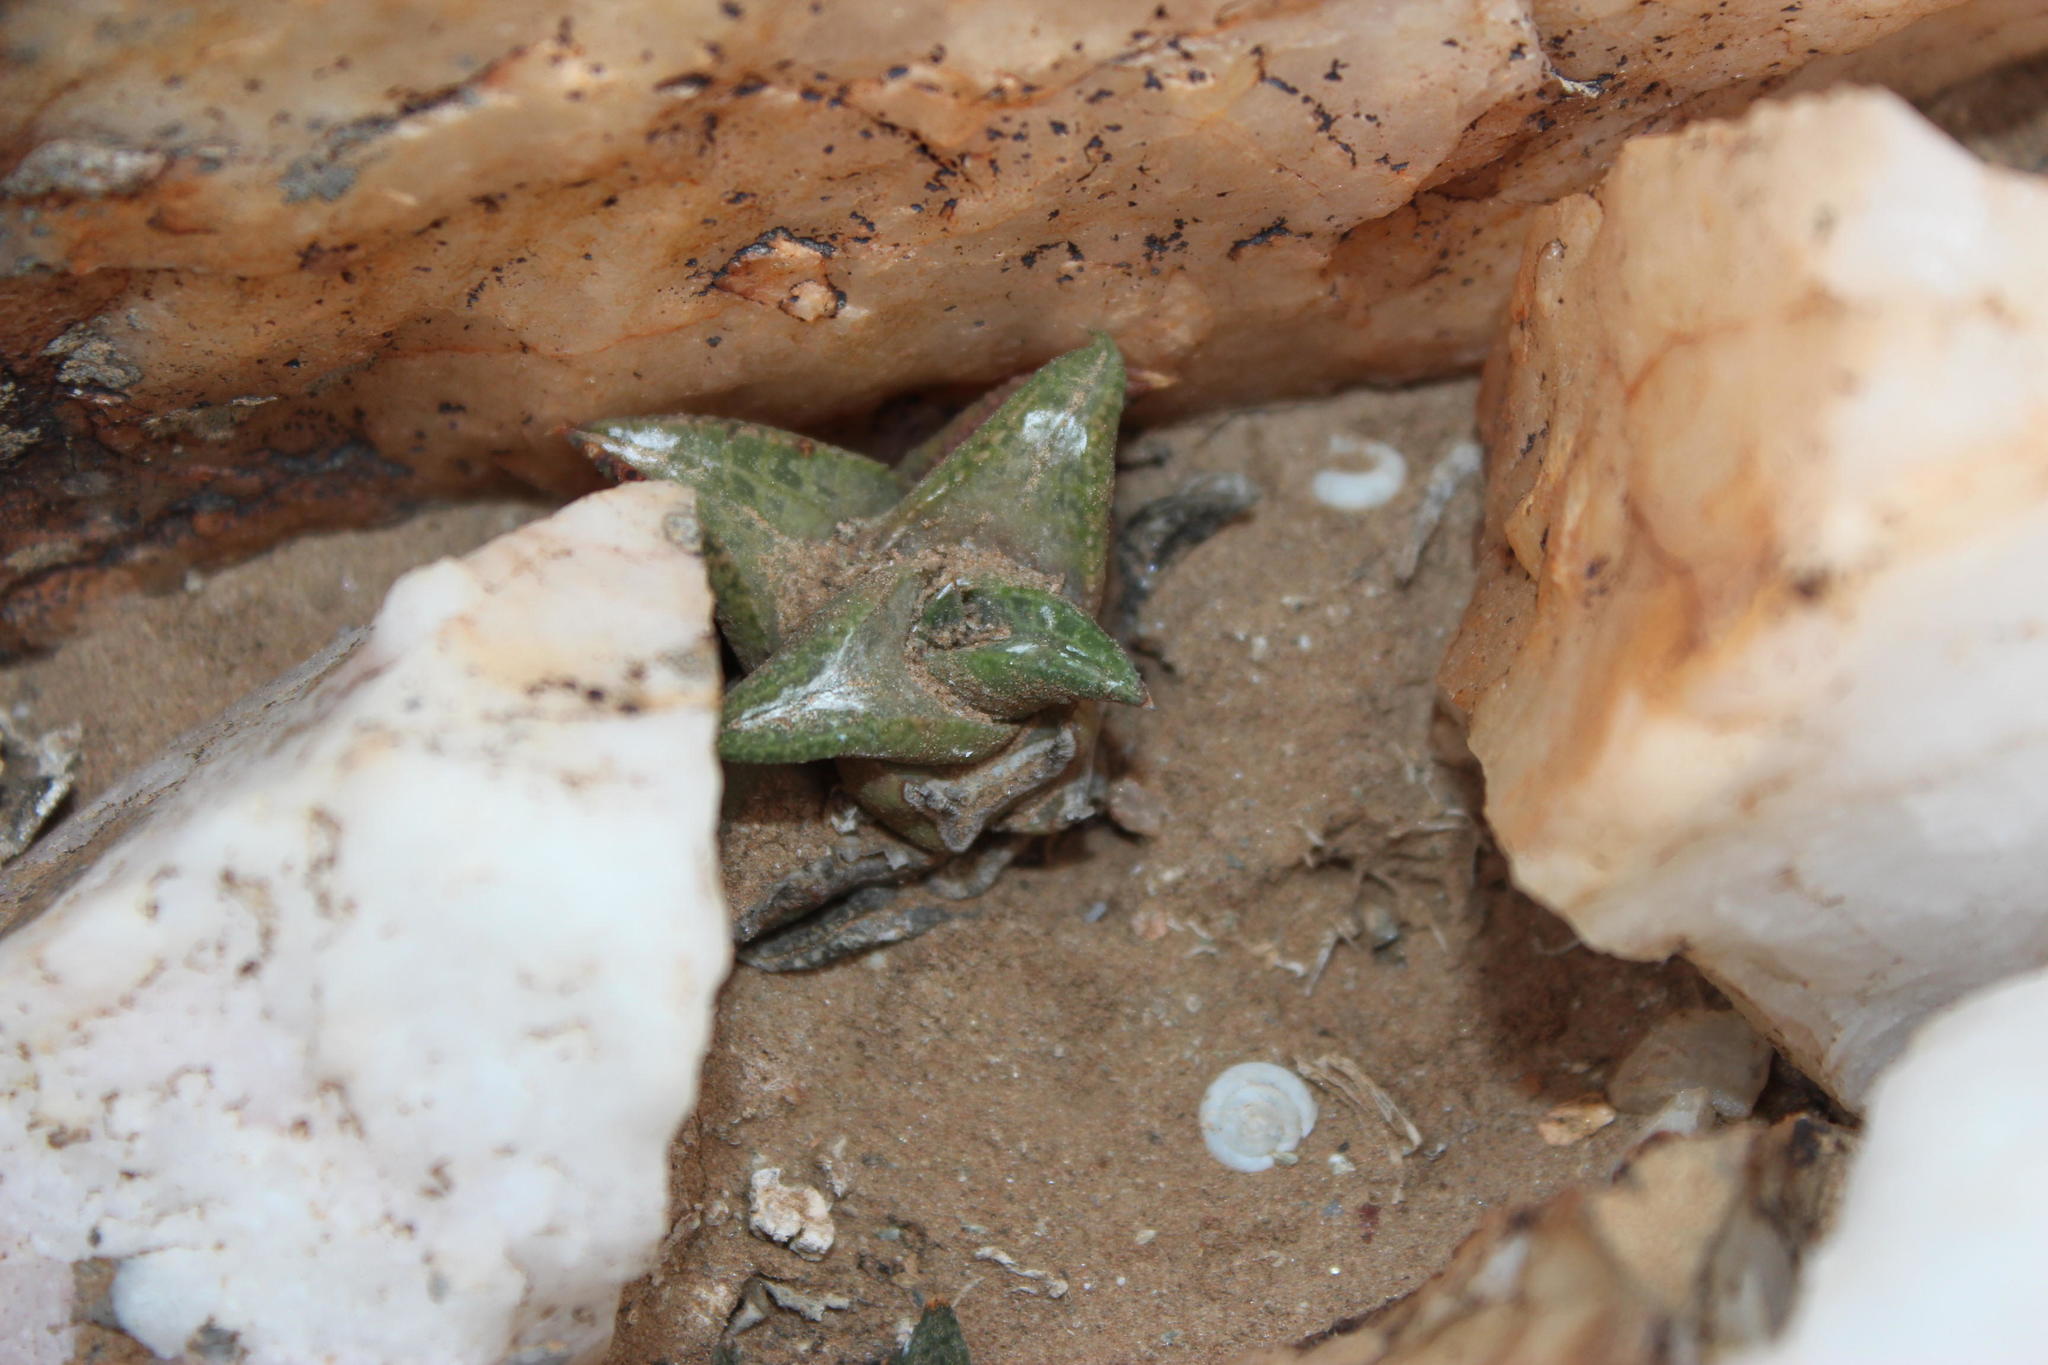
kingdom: Plantae
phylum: Tracheophyta
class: Liliopsida
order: Asparagales
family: Asphodelaceae
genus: Haworthiopsis
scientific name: Haworthiopsis tessellata
